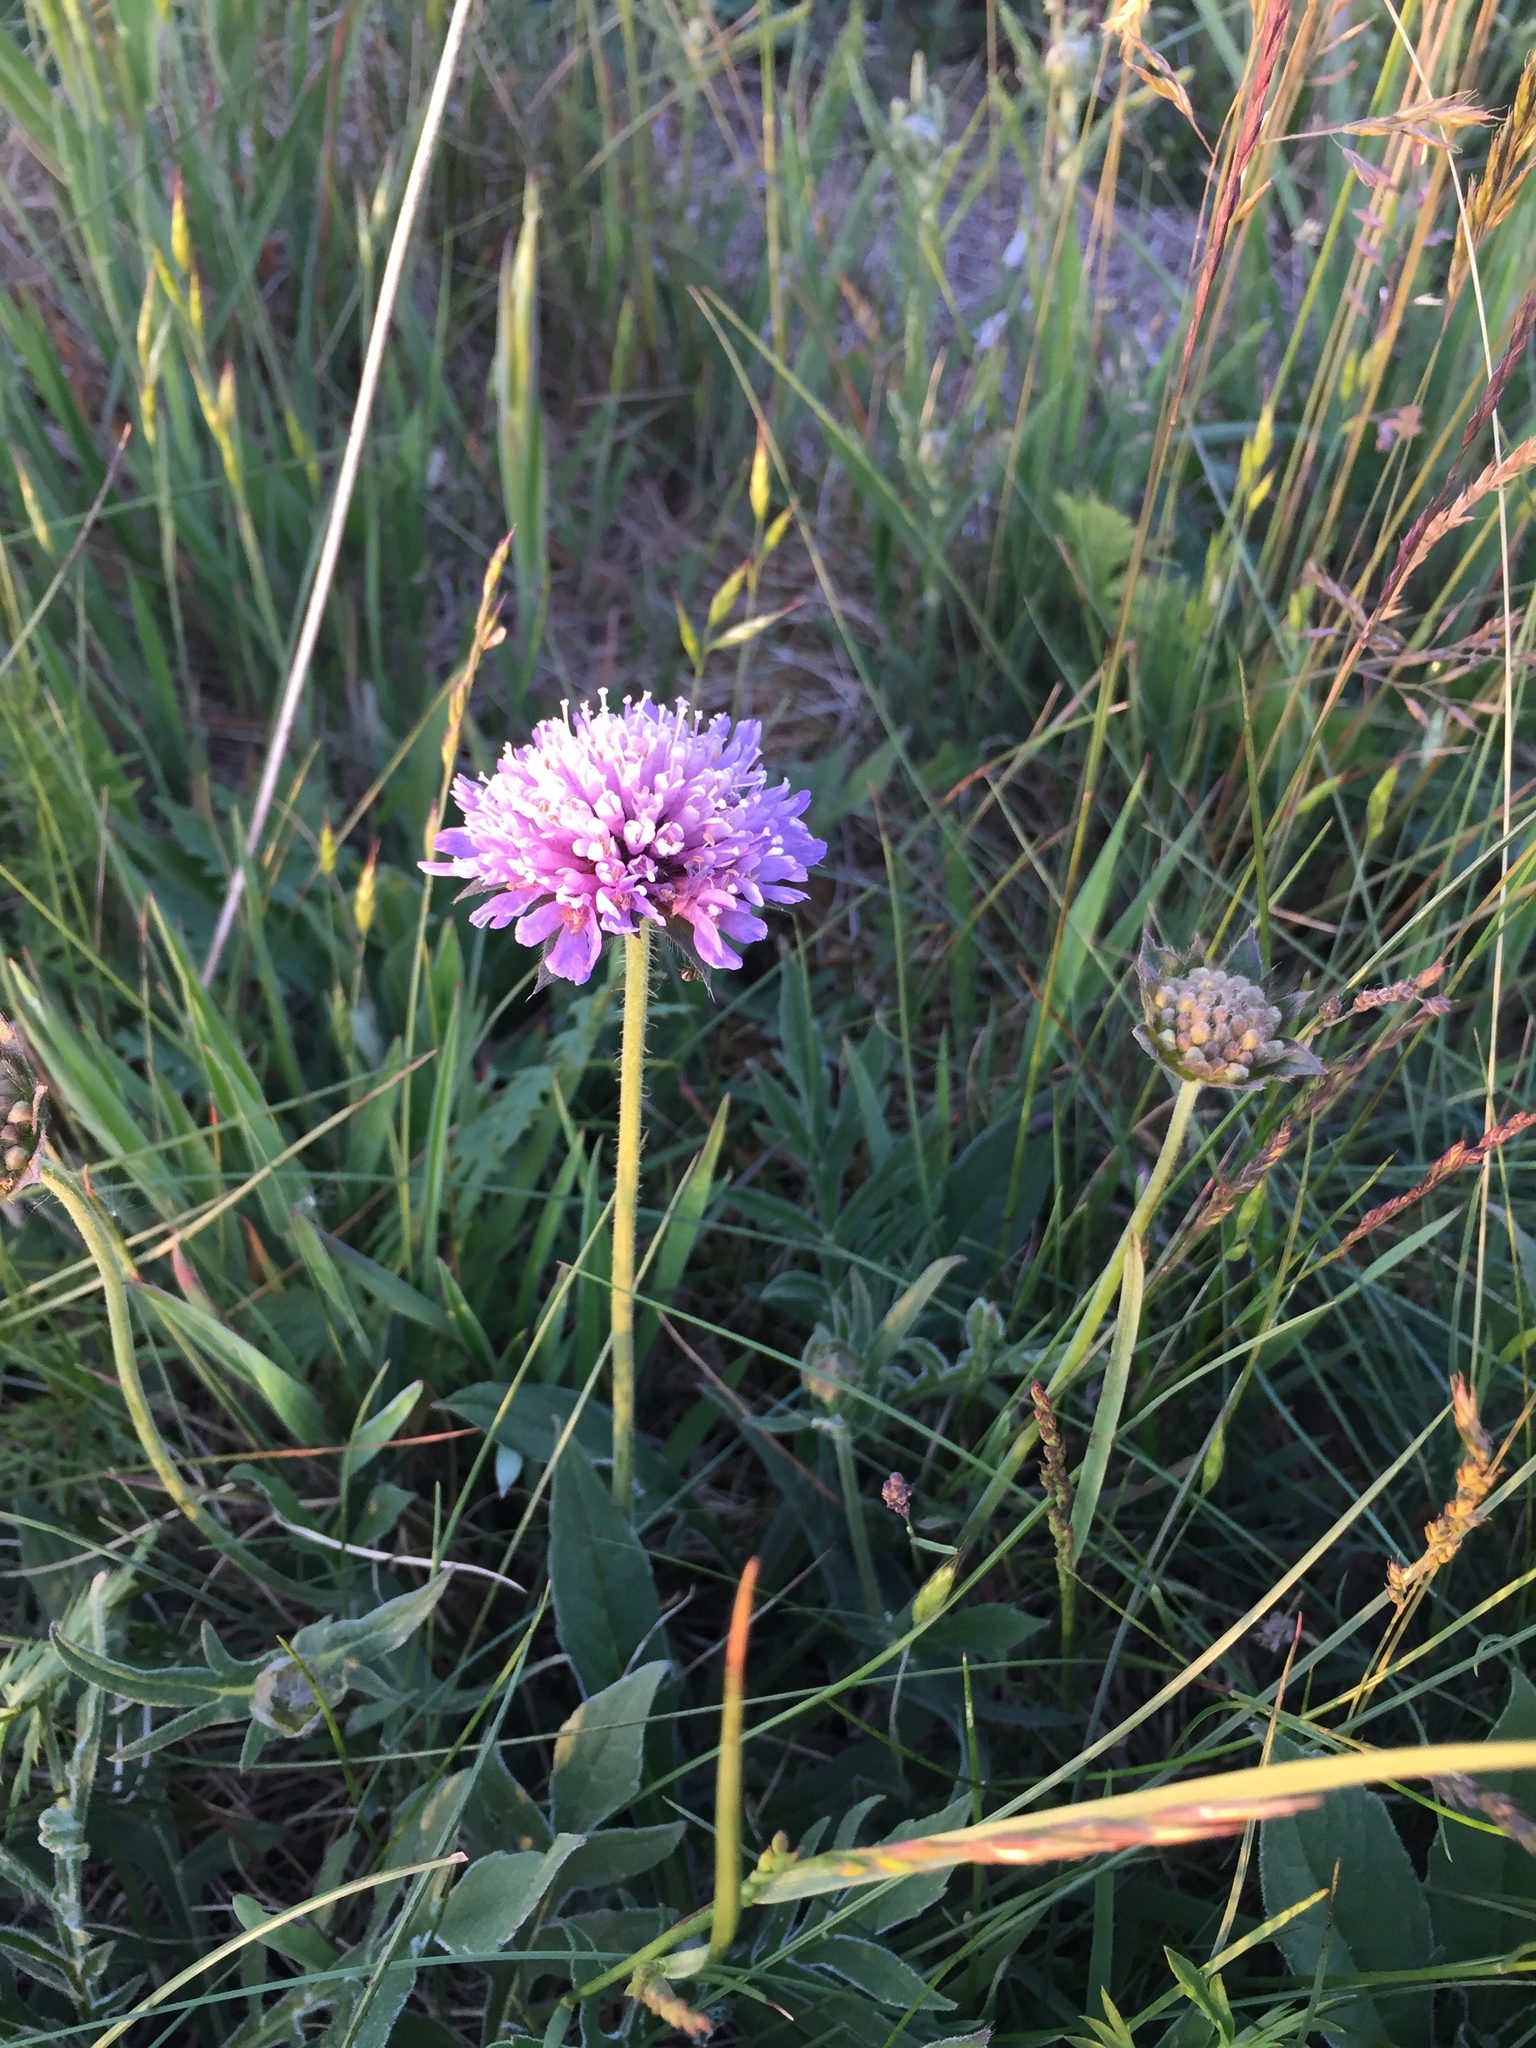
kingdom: Plantae
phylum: Tracheophyta
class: Magnoliopsida
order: Dipsacales
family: Caprifoliaceae
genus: Knautia
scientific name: Knautia arvensis
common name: Field scabiosa
